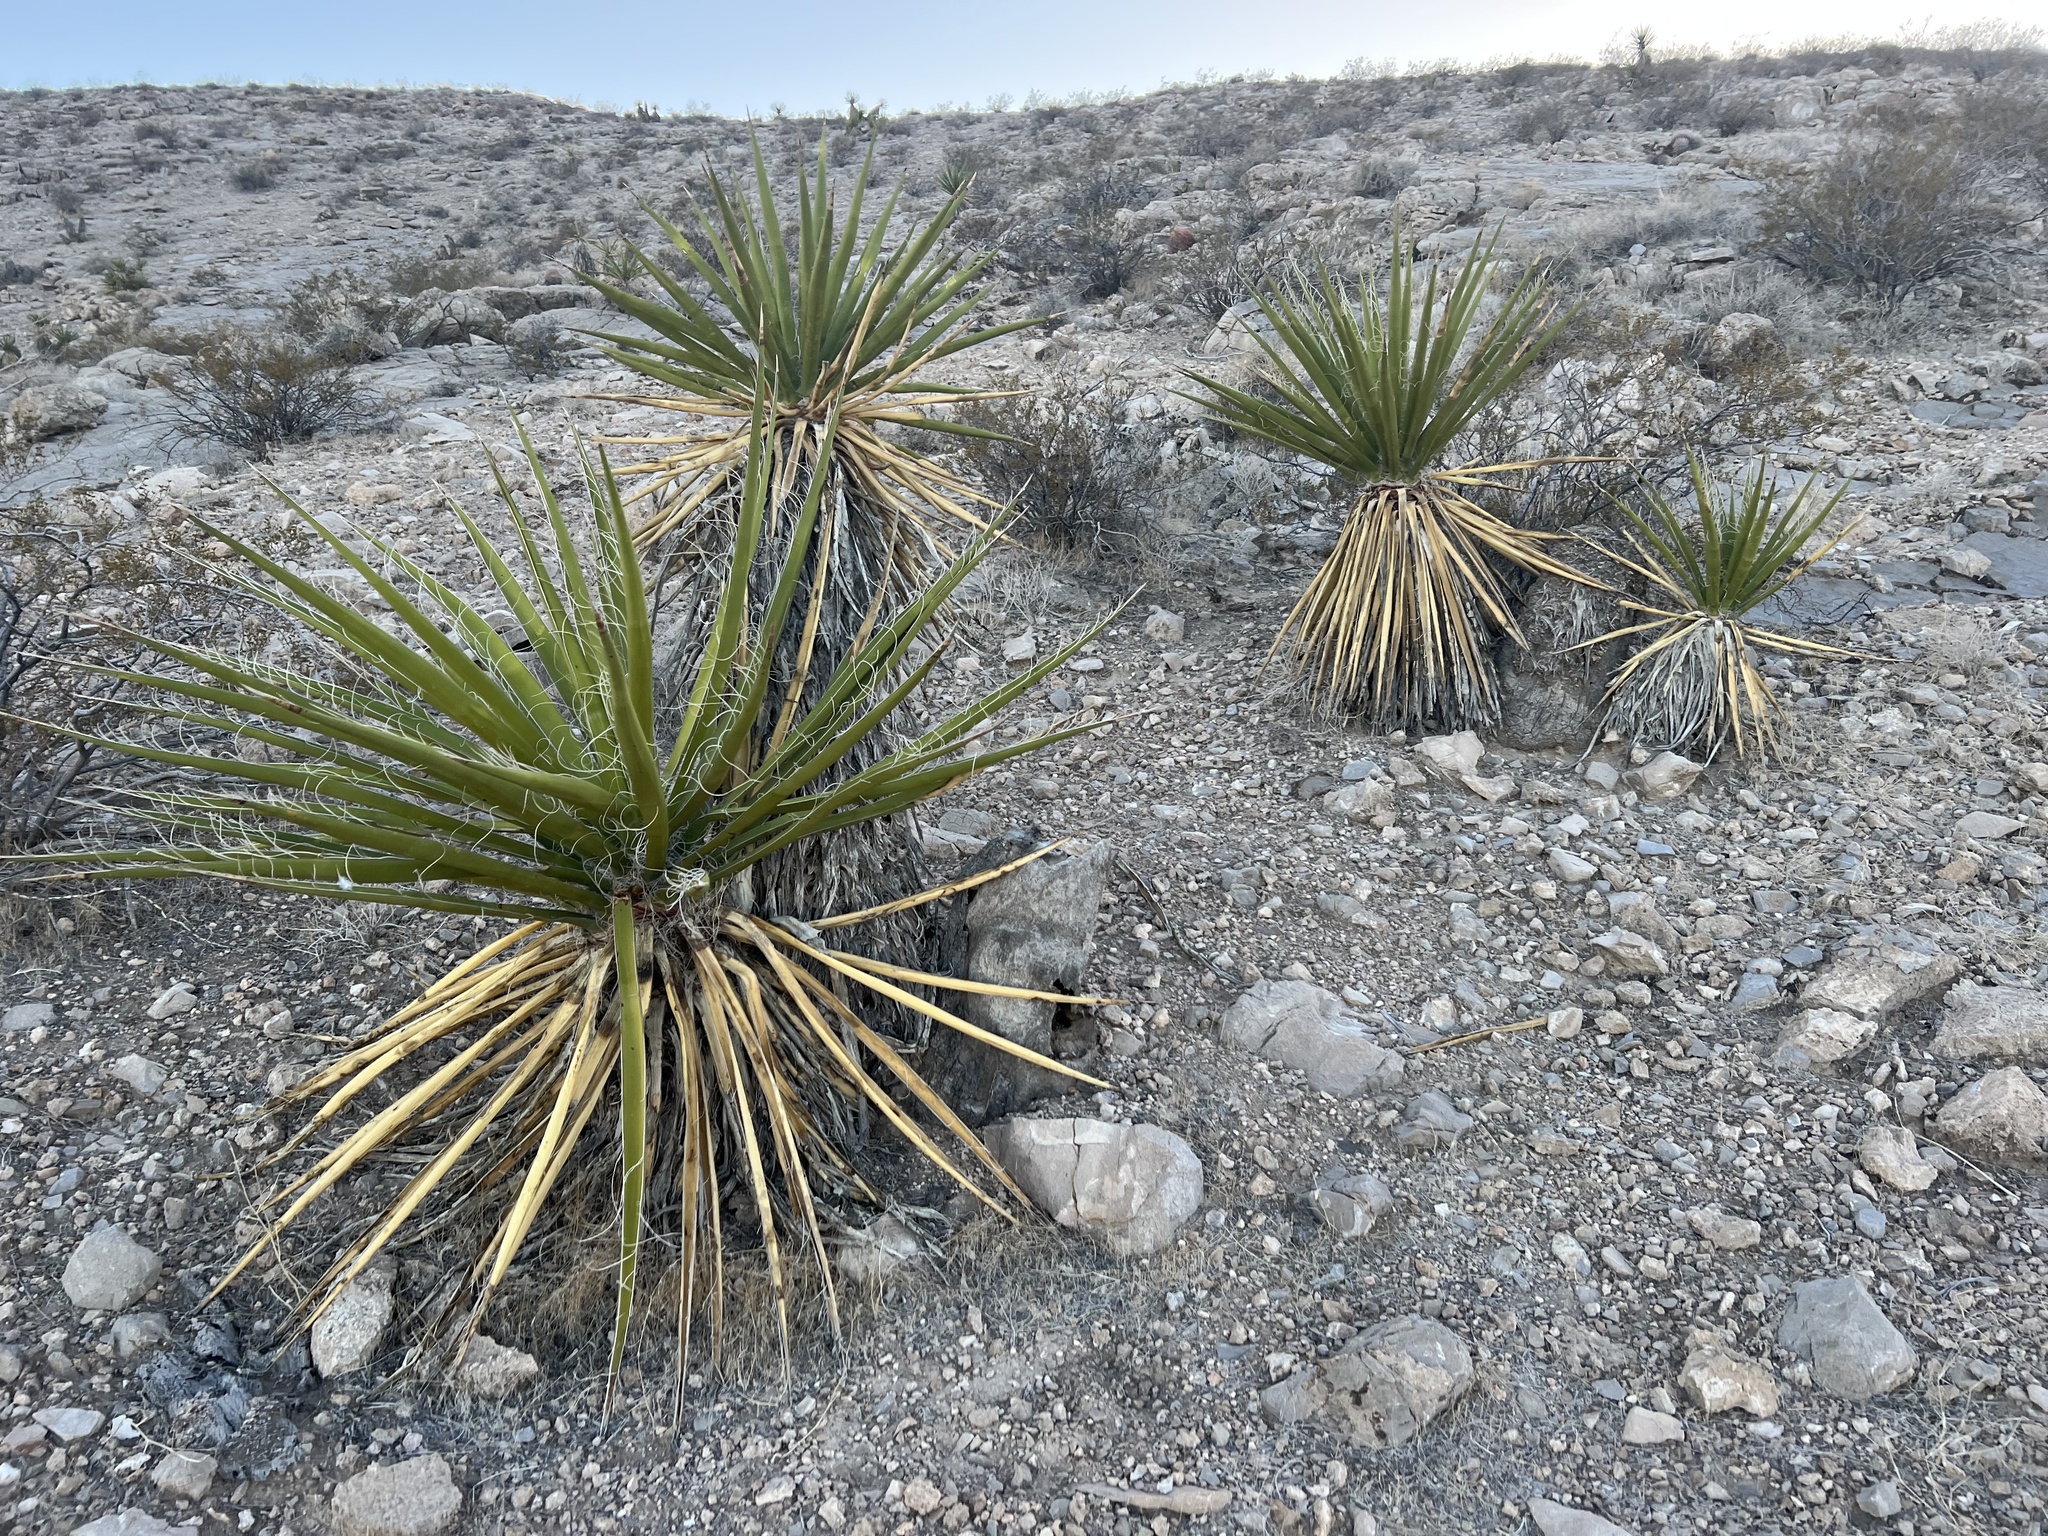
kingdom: Plantae
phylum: Tracheophyta
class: Liliopsida
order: Asparagales
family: Asparagaceae
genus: Yucca
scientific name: Yucca schidigera
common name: Mojave yucca
